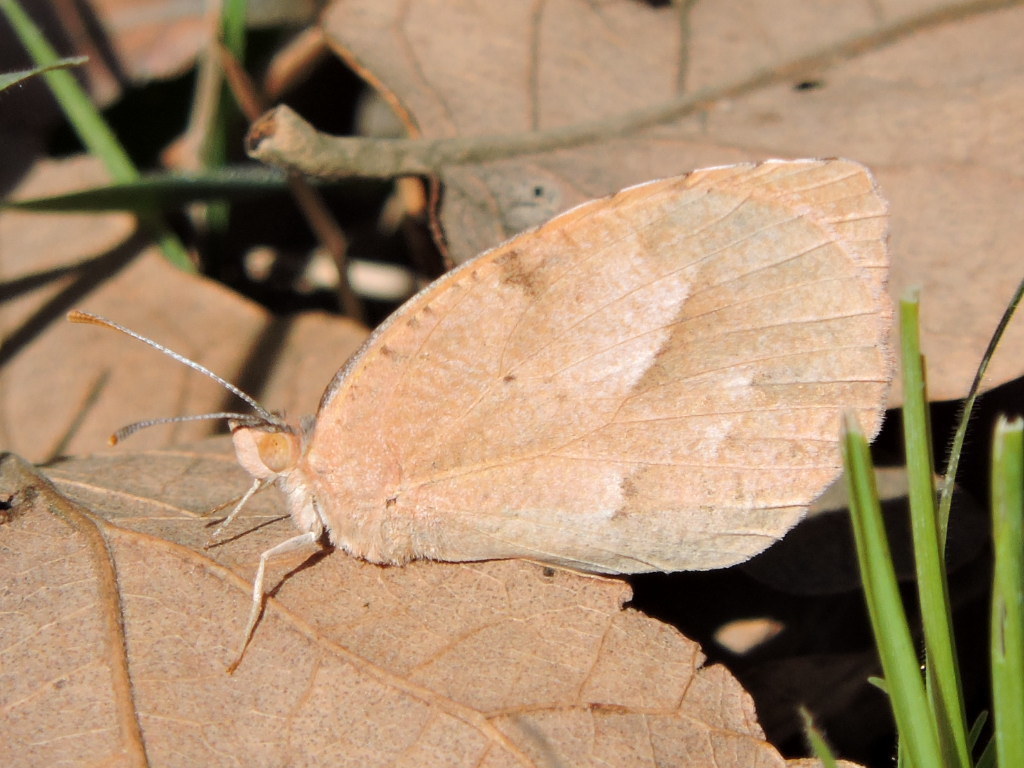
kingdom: Animalia
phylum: Arthropoda
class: Insecta
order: Lepidoptera
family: Pieridae
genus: Abaeis
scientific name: Abaeis nicippe
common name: Sleepy orange
